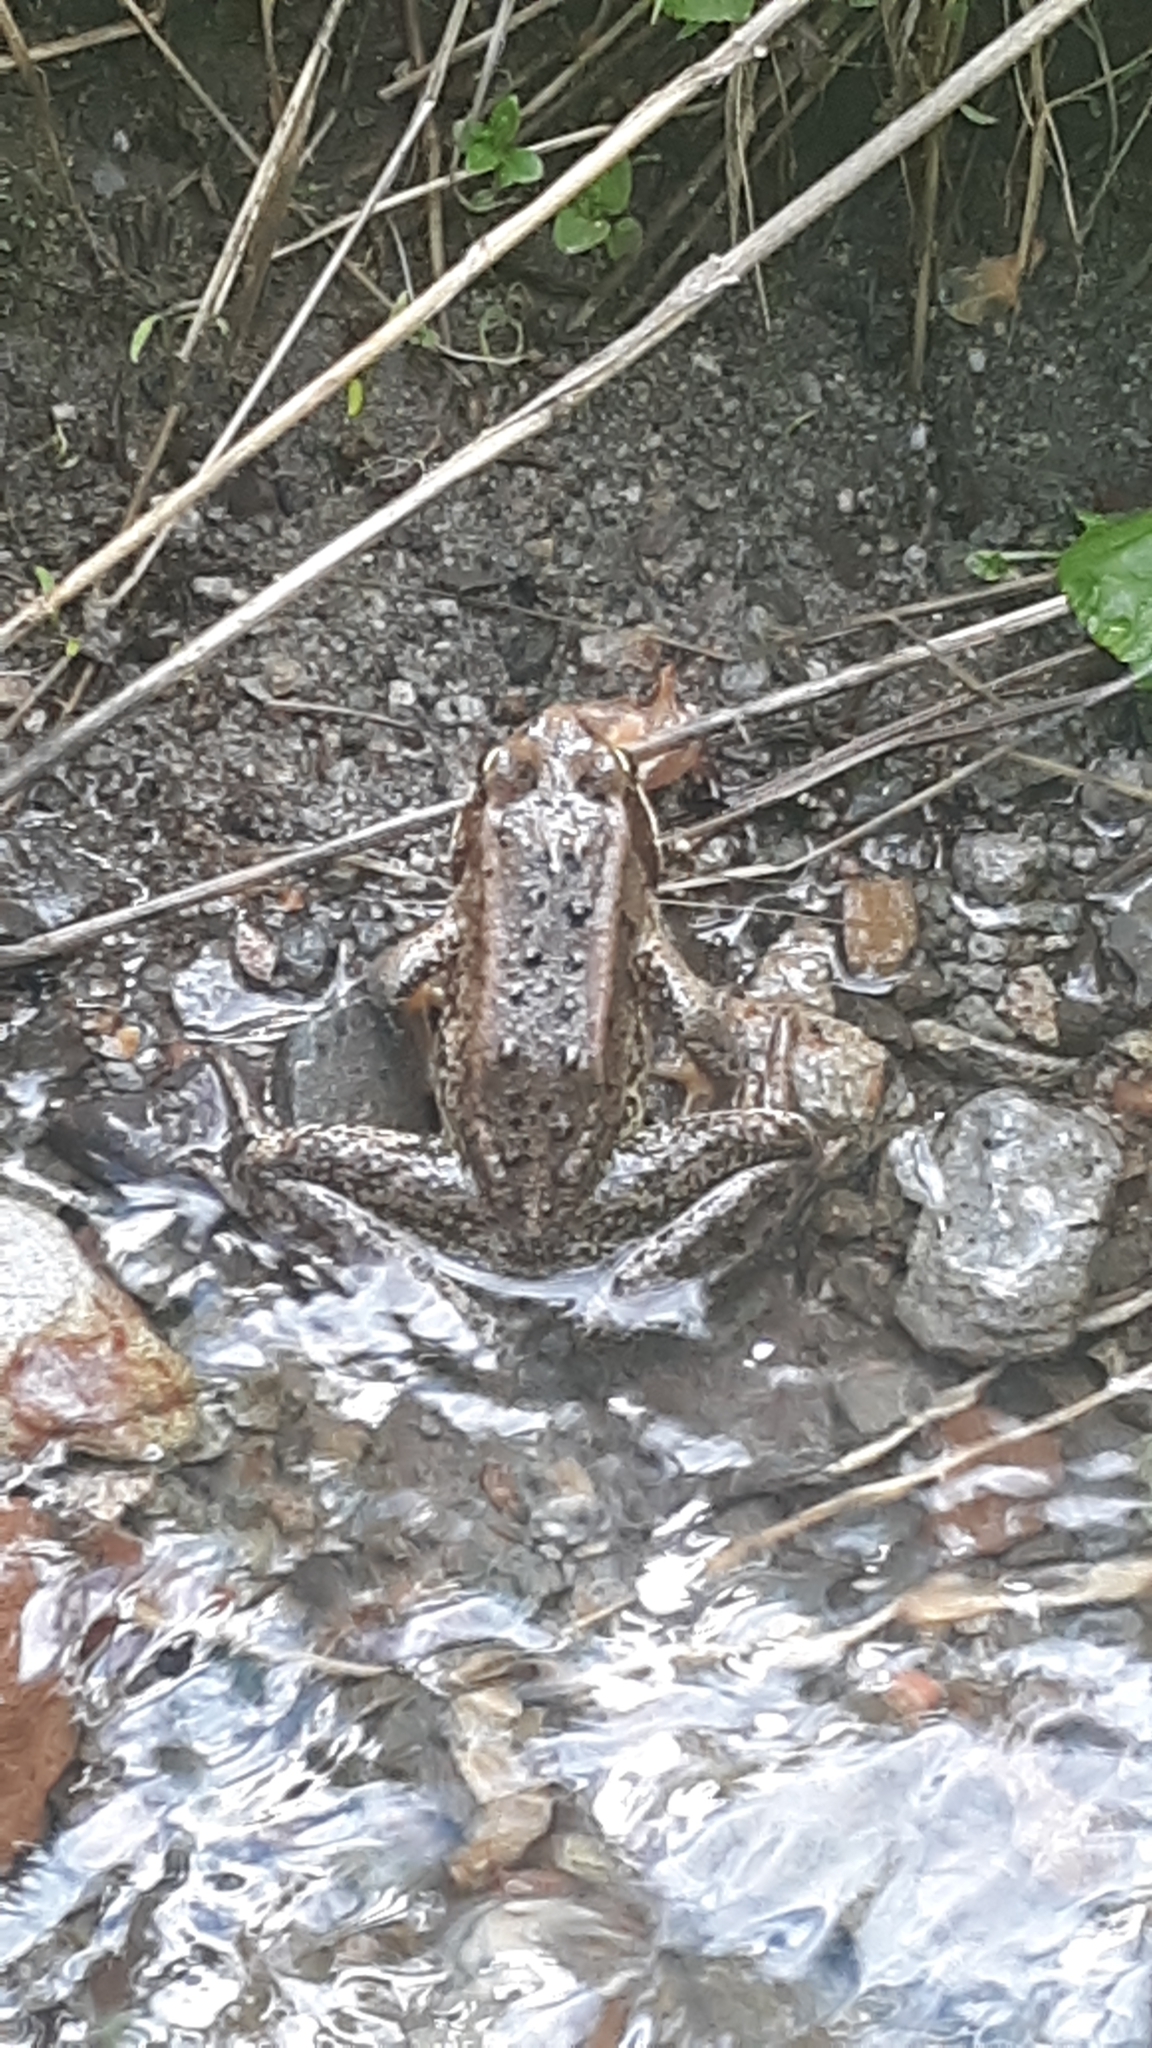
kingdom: Animalia
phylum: Chordata
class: Amphibia
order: Anura
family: Ranidae
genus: Rana
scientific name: Rana cascadae
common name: Cascades frog
